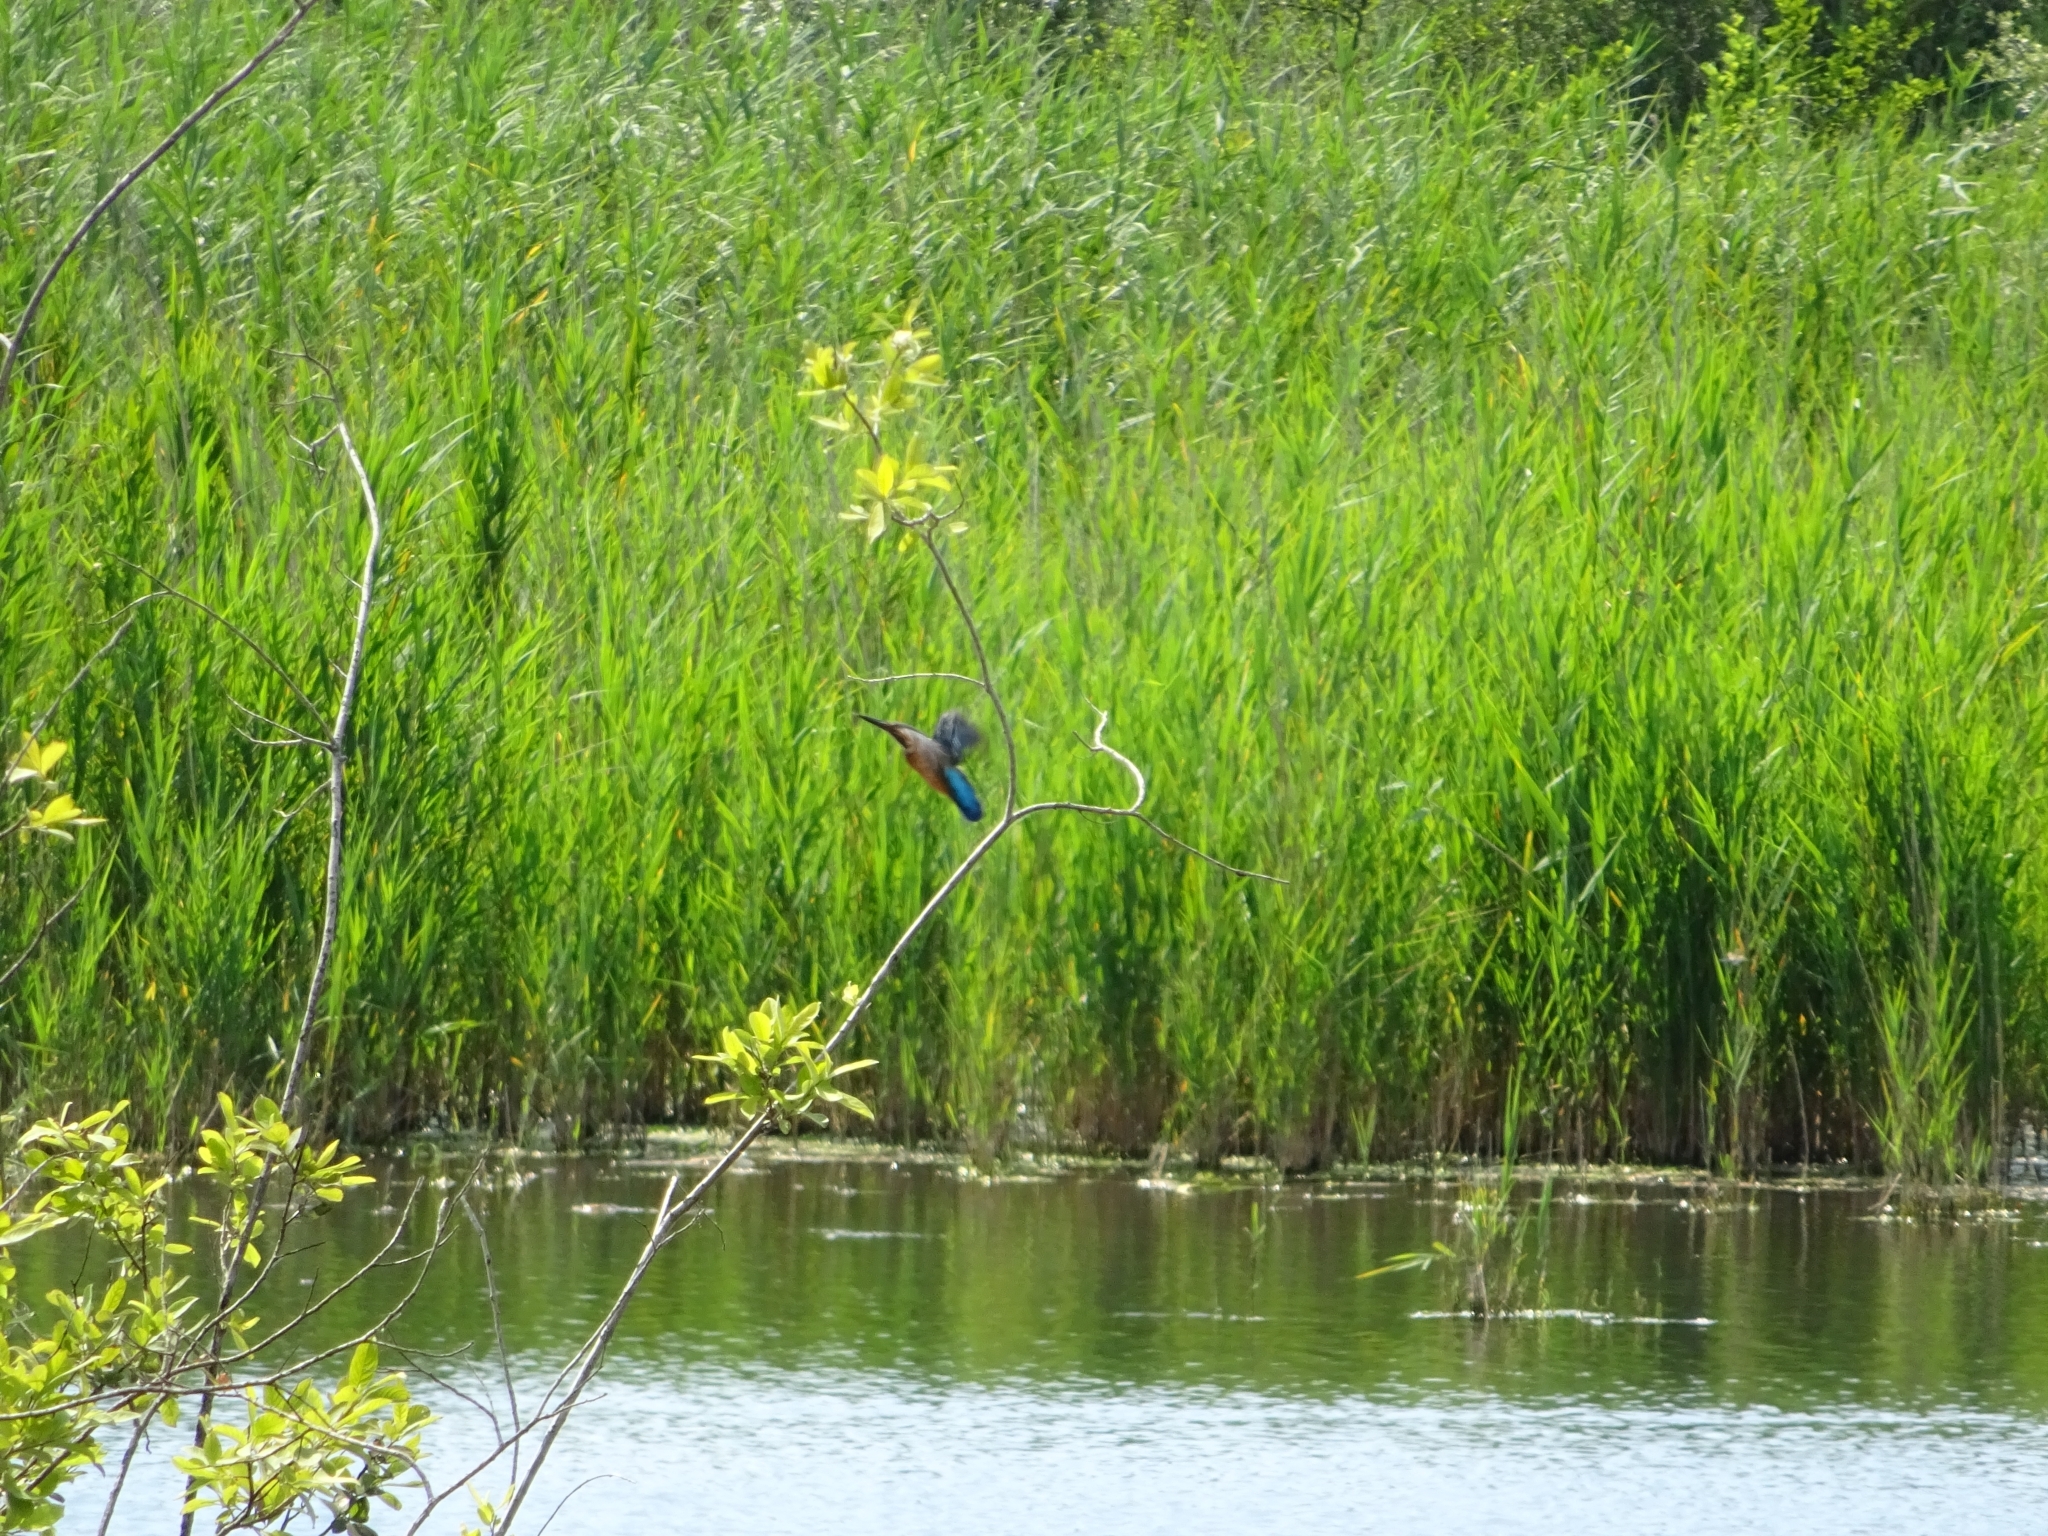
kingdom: Animalia
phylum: Chordata
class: Aves
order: Coraciiformes
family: Alcedinidae
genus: Alcedo
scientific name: Alcedo atthis
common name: Common kingfisher
